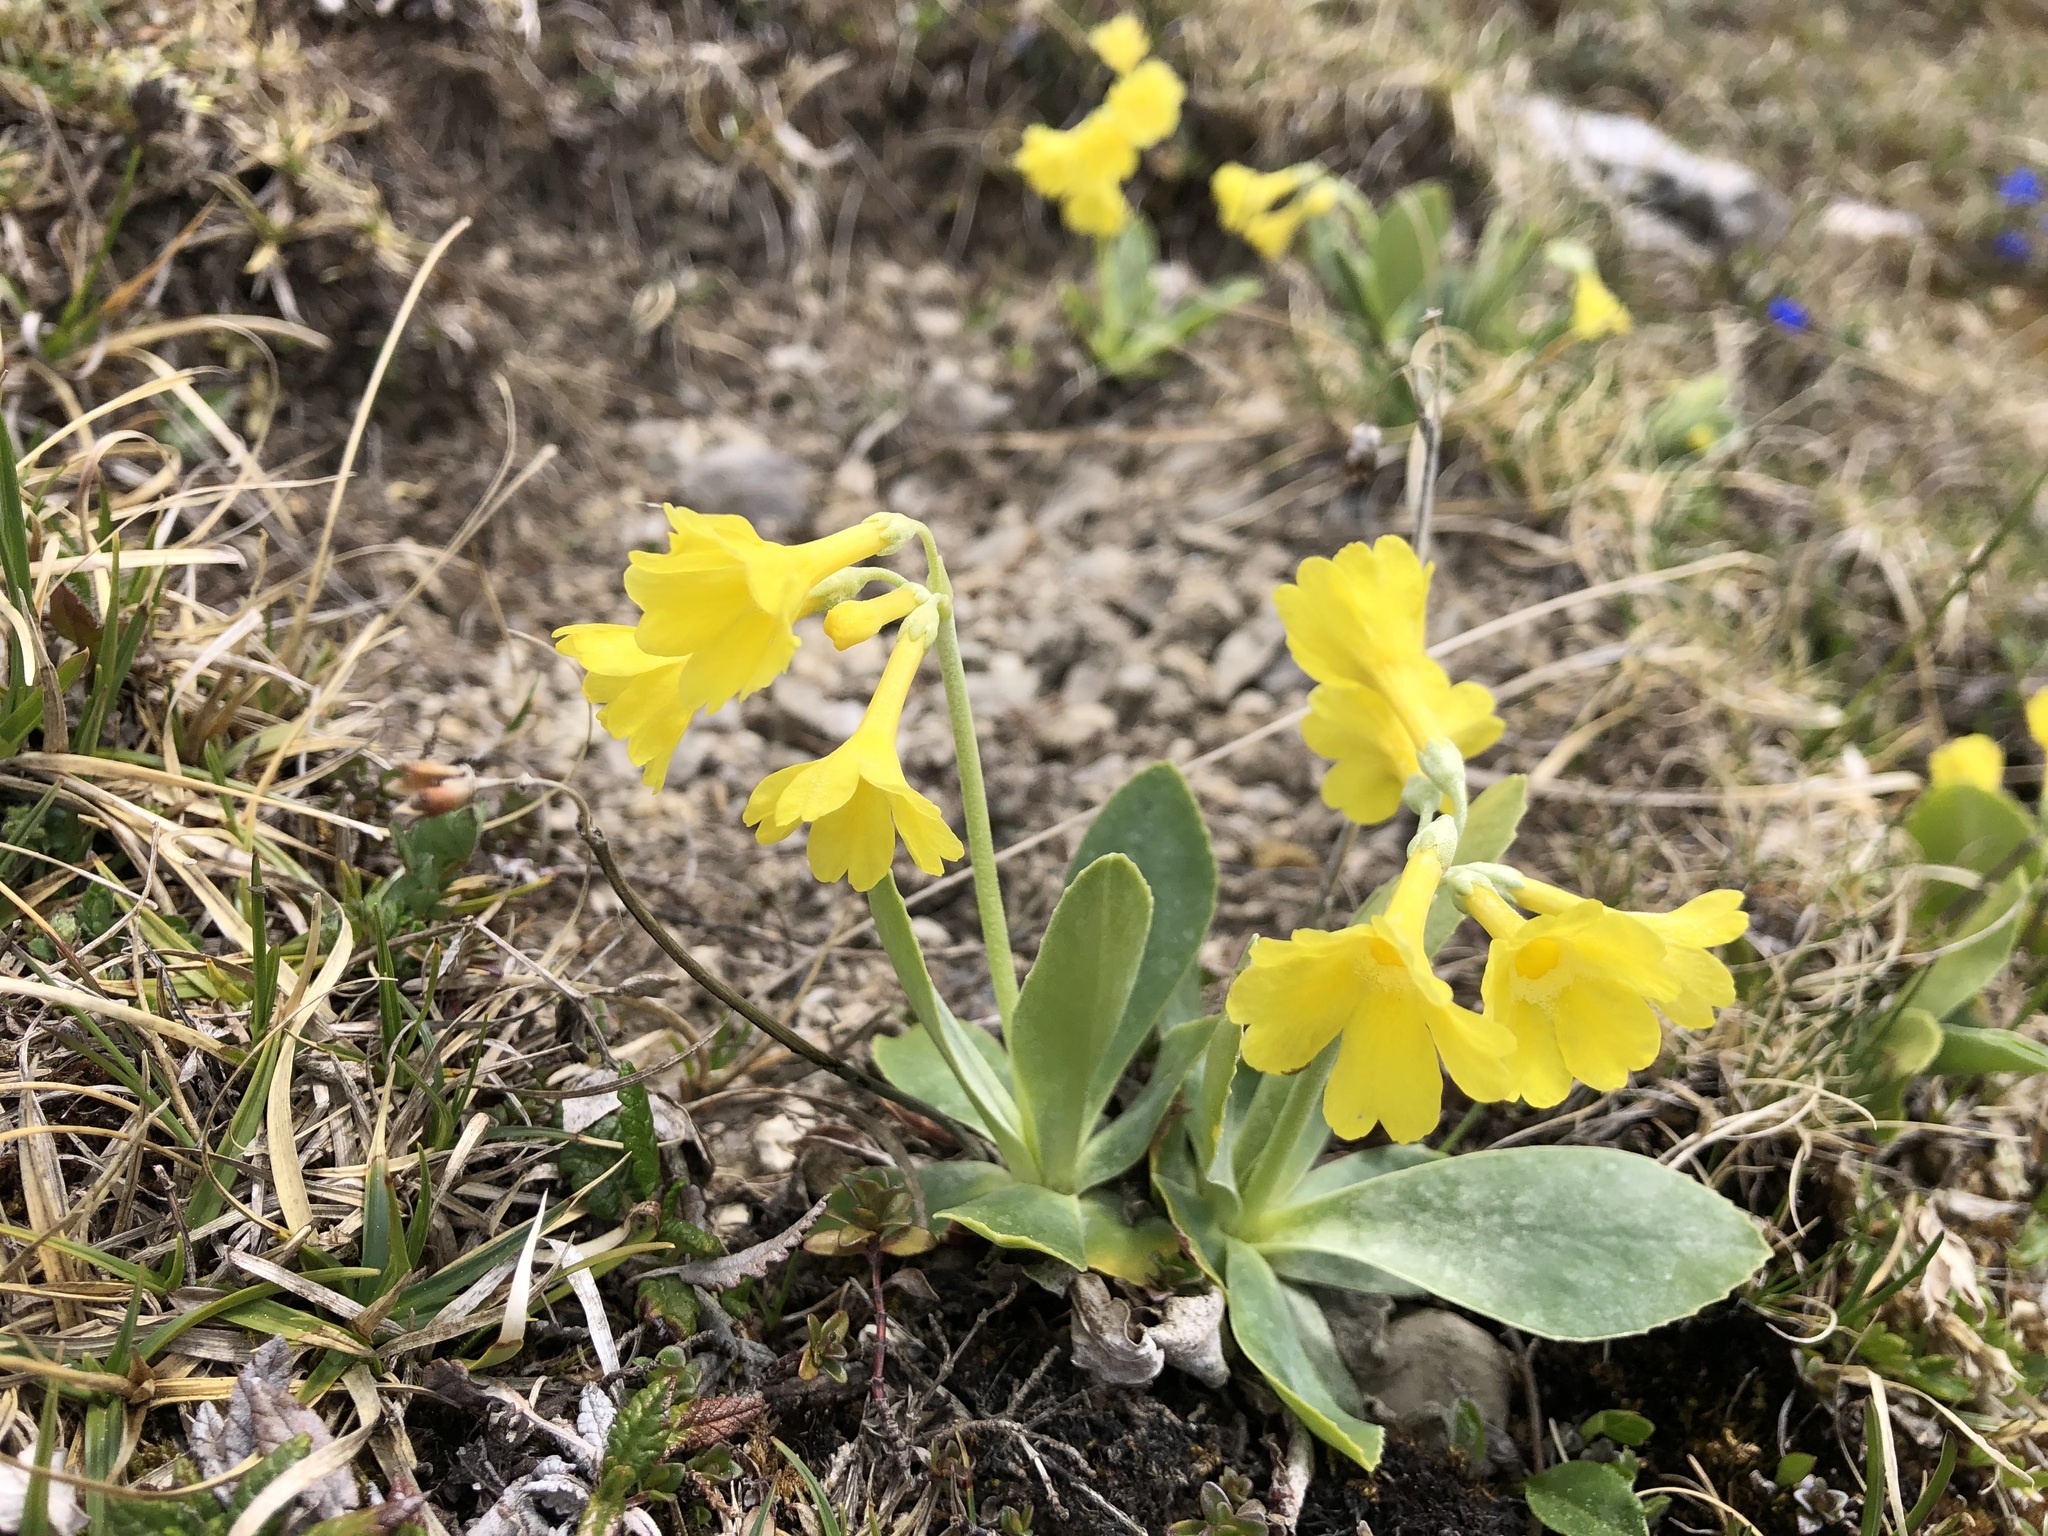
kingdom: Plantae
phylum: Tracheophyta
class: Magnoliopsida
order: Ericales
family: Primulaceae
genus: Primula
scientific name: Primula auricula
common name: Auricula
